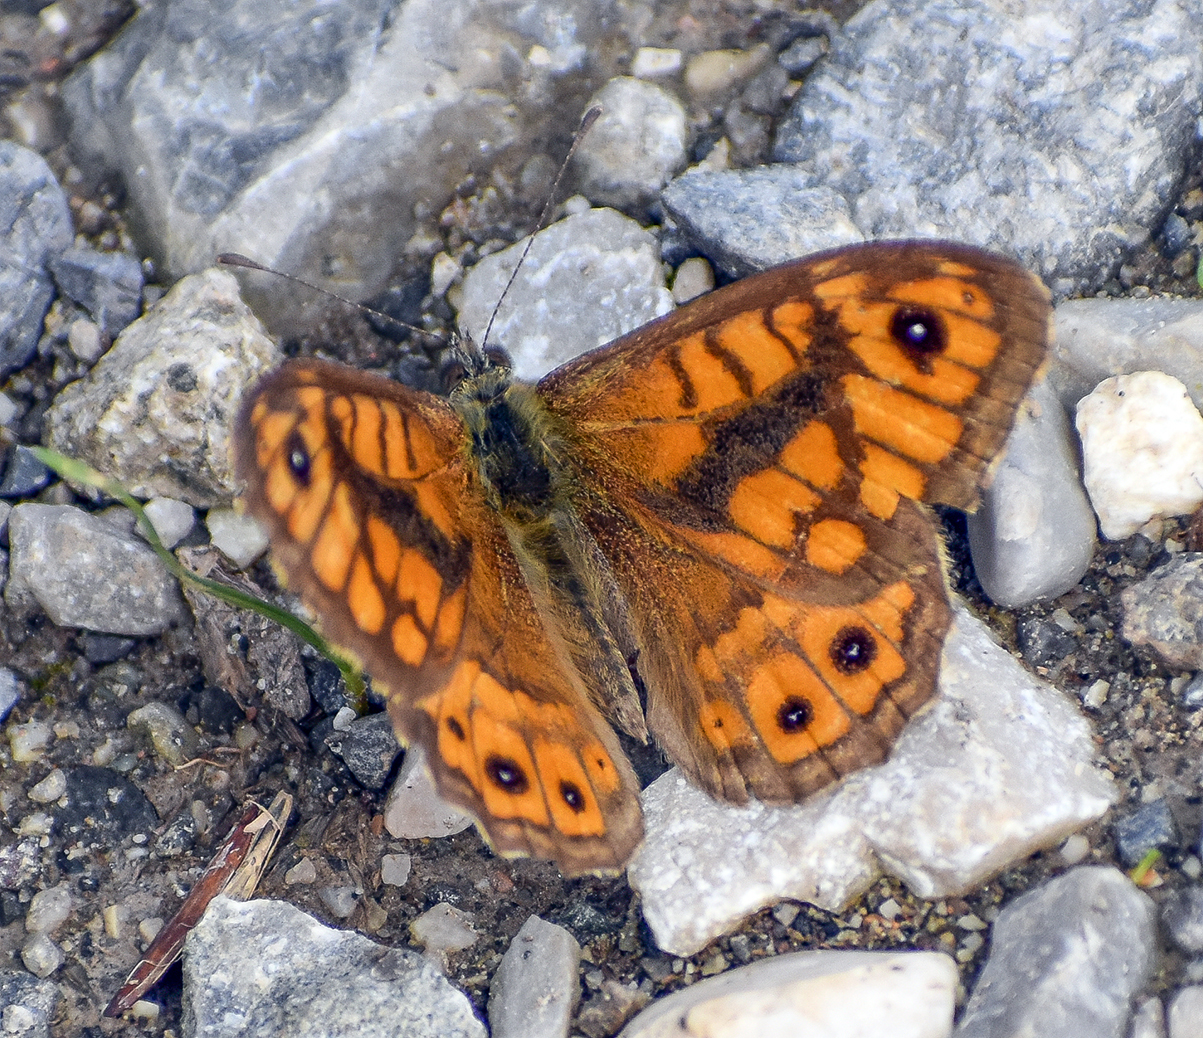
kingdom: Animalia
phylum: Arthropoda
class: Insecta
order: Lepidoptera
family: Nymphalidae
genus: Pararge
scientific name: Pararge Lasiommata megera
